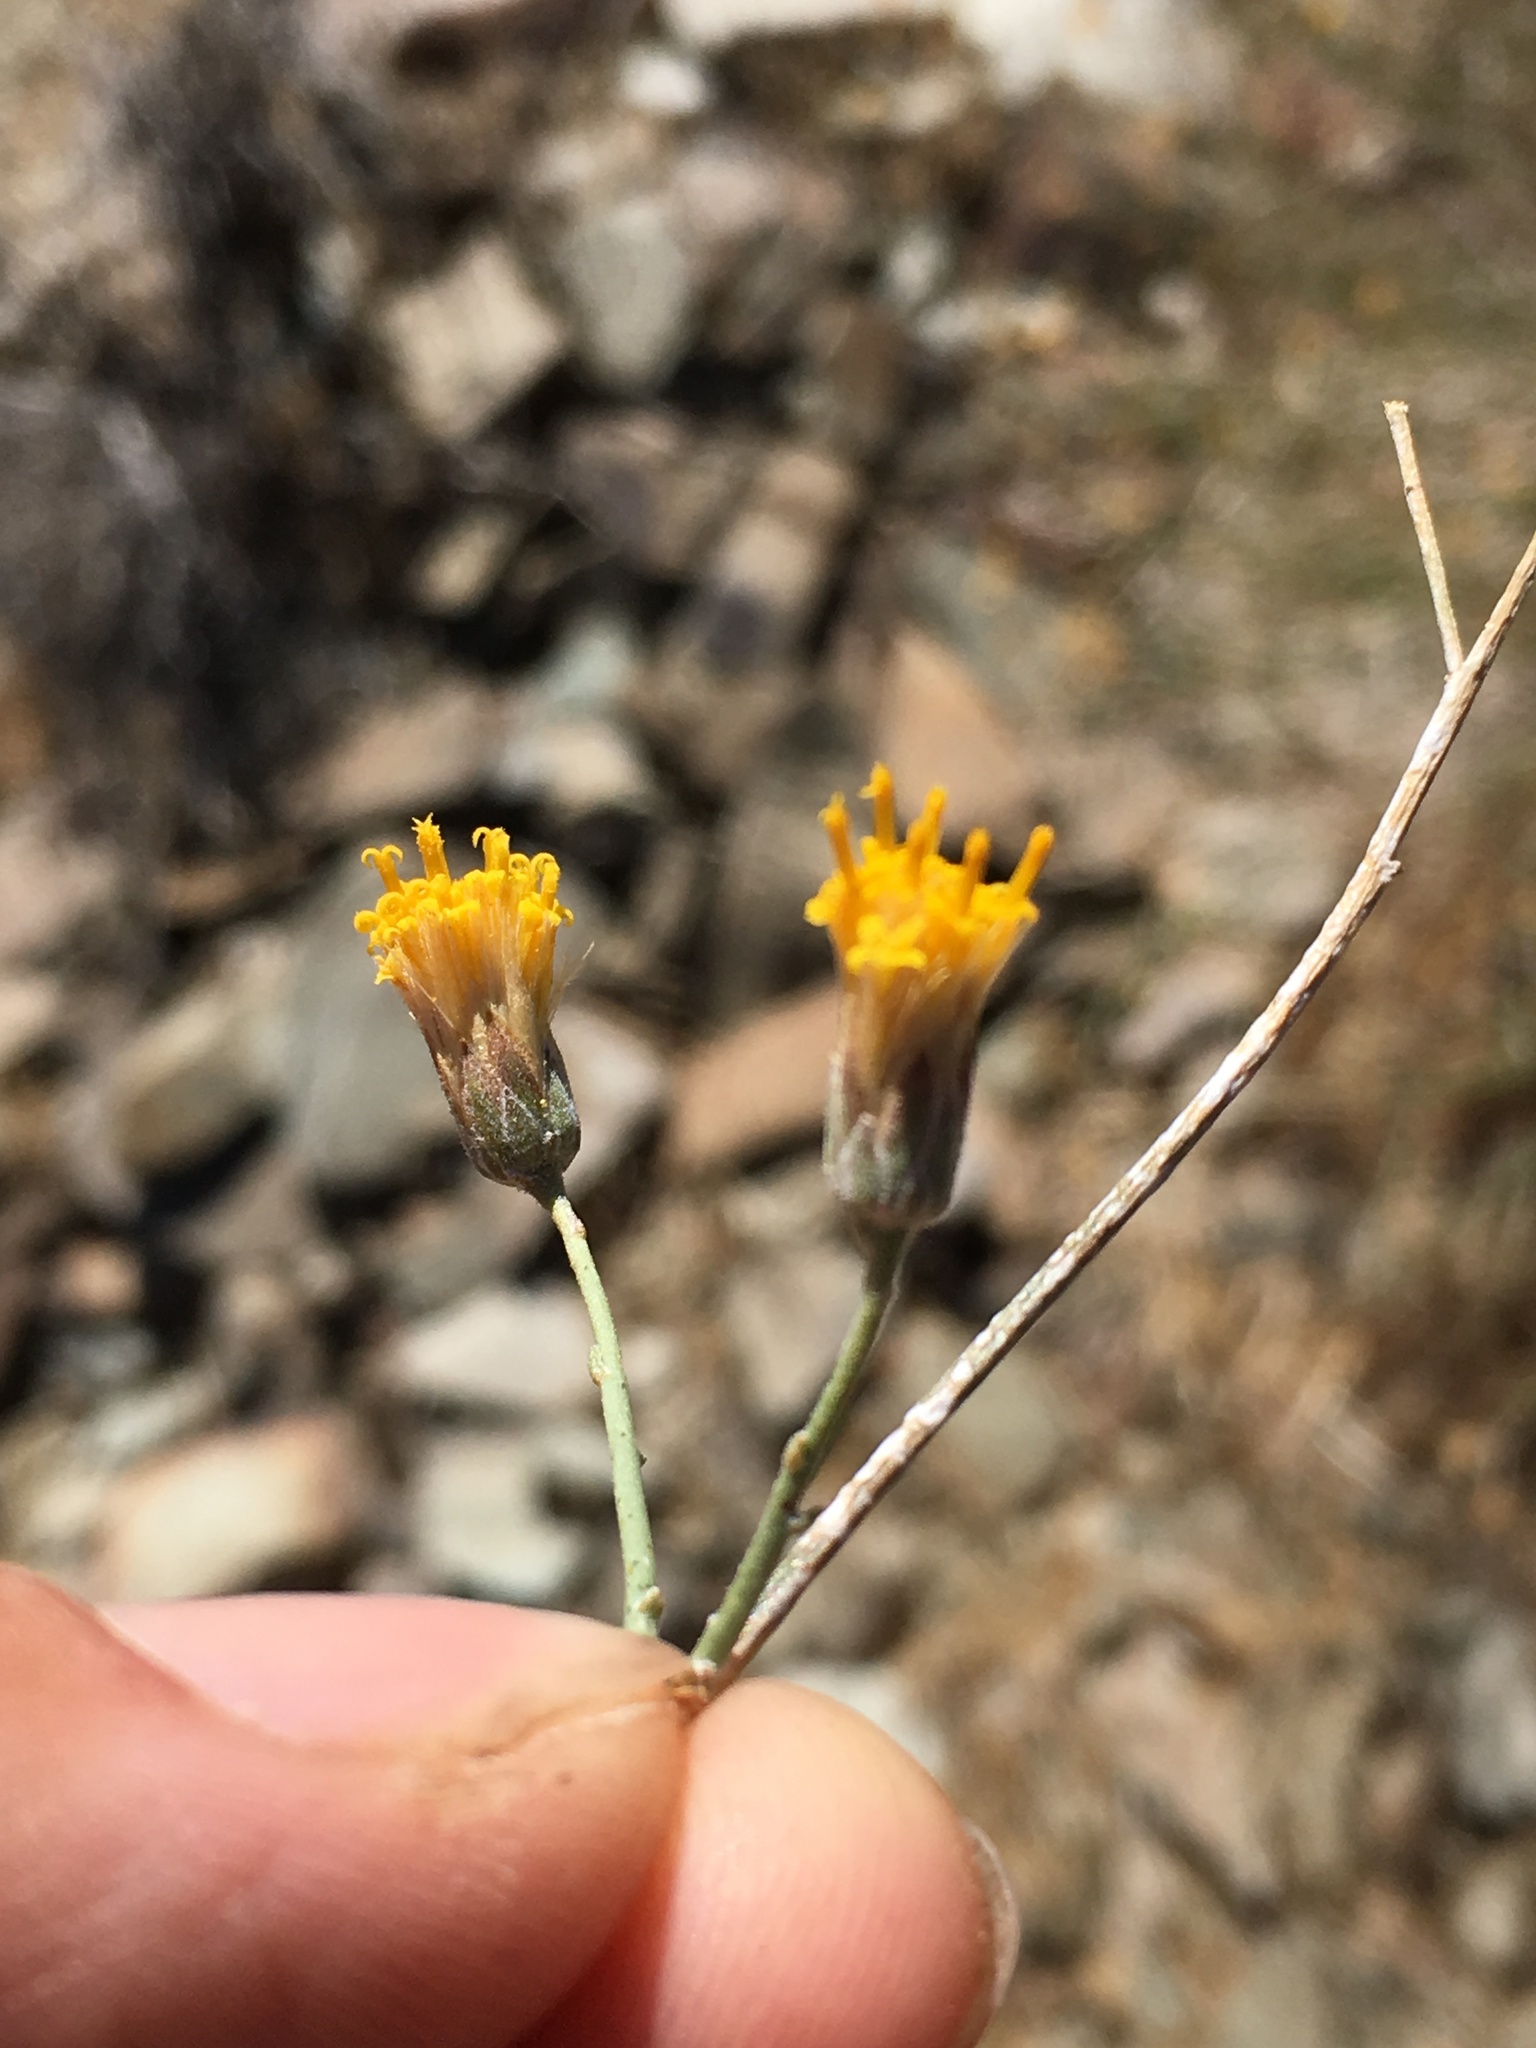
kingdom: Plantae
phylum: Tracheophyta
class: Magnoliopsida
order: Asterales
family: Asteraceae
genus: Bebbia
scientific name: Bebbia juncea
